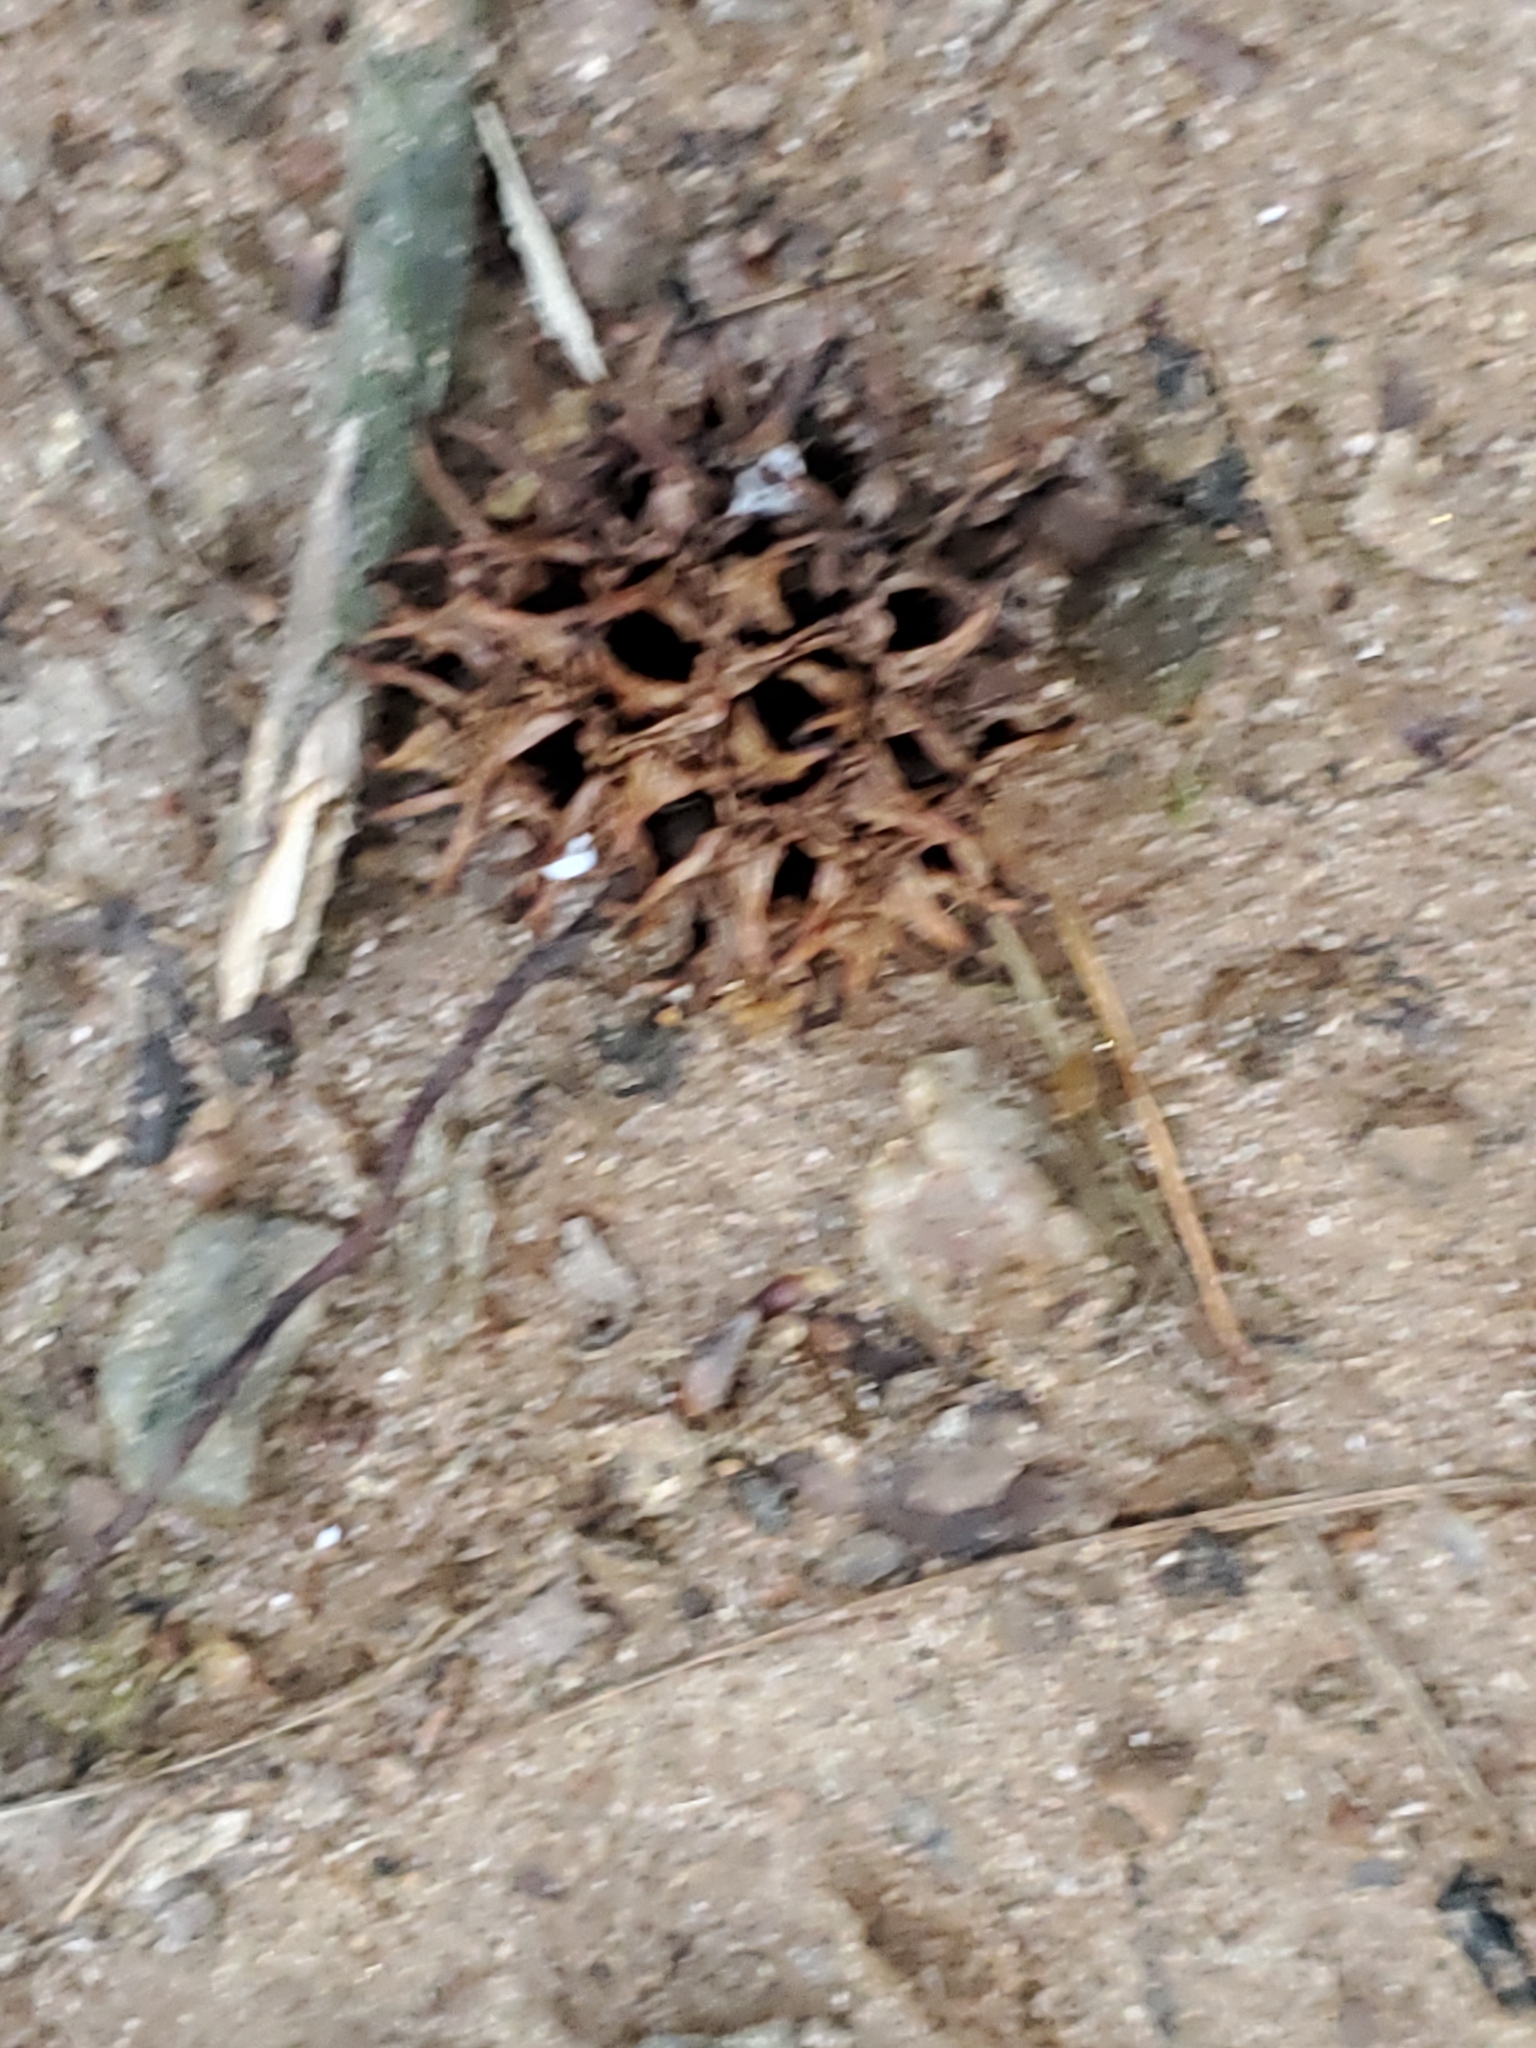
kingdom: Plantae
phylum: Tracheophyta
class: Magnoliopsida
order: Saxifragales
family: Altingiaceae
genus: Liquidambar
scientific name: Liquidambar styraciflua
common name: Sweet gum
